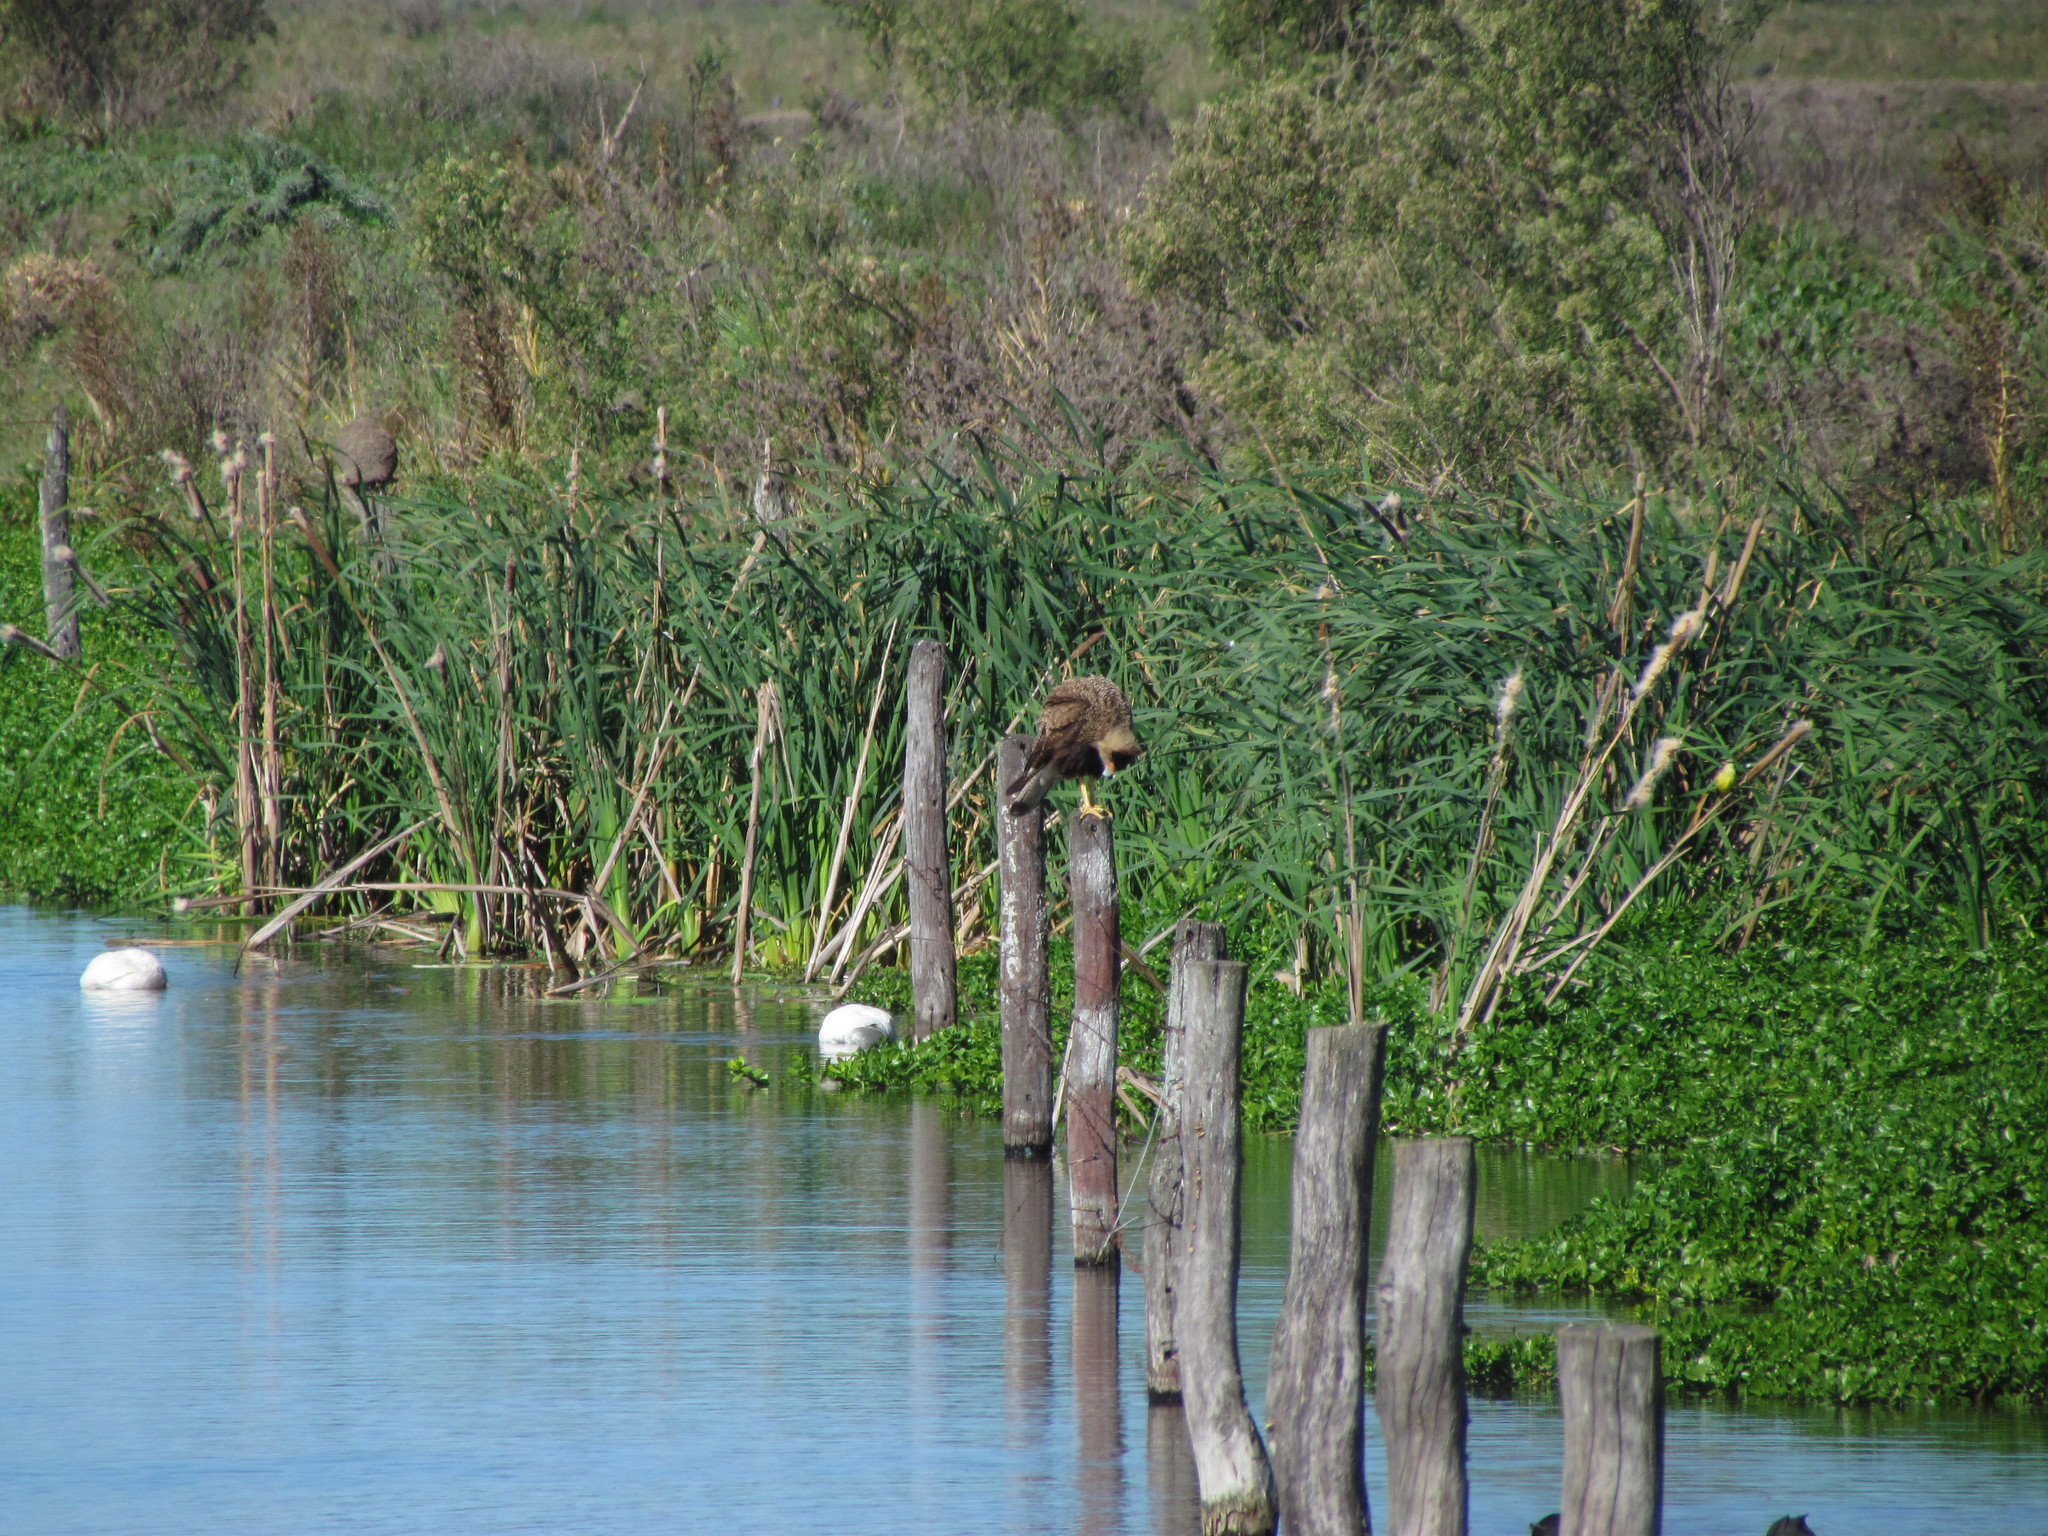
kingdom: Animalia
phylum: Chordata
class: Aves
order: Falconiformes
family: Falconidae
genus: Caracara
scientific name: Caracara plancus
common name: Southern caracara
